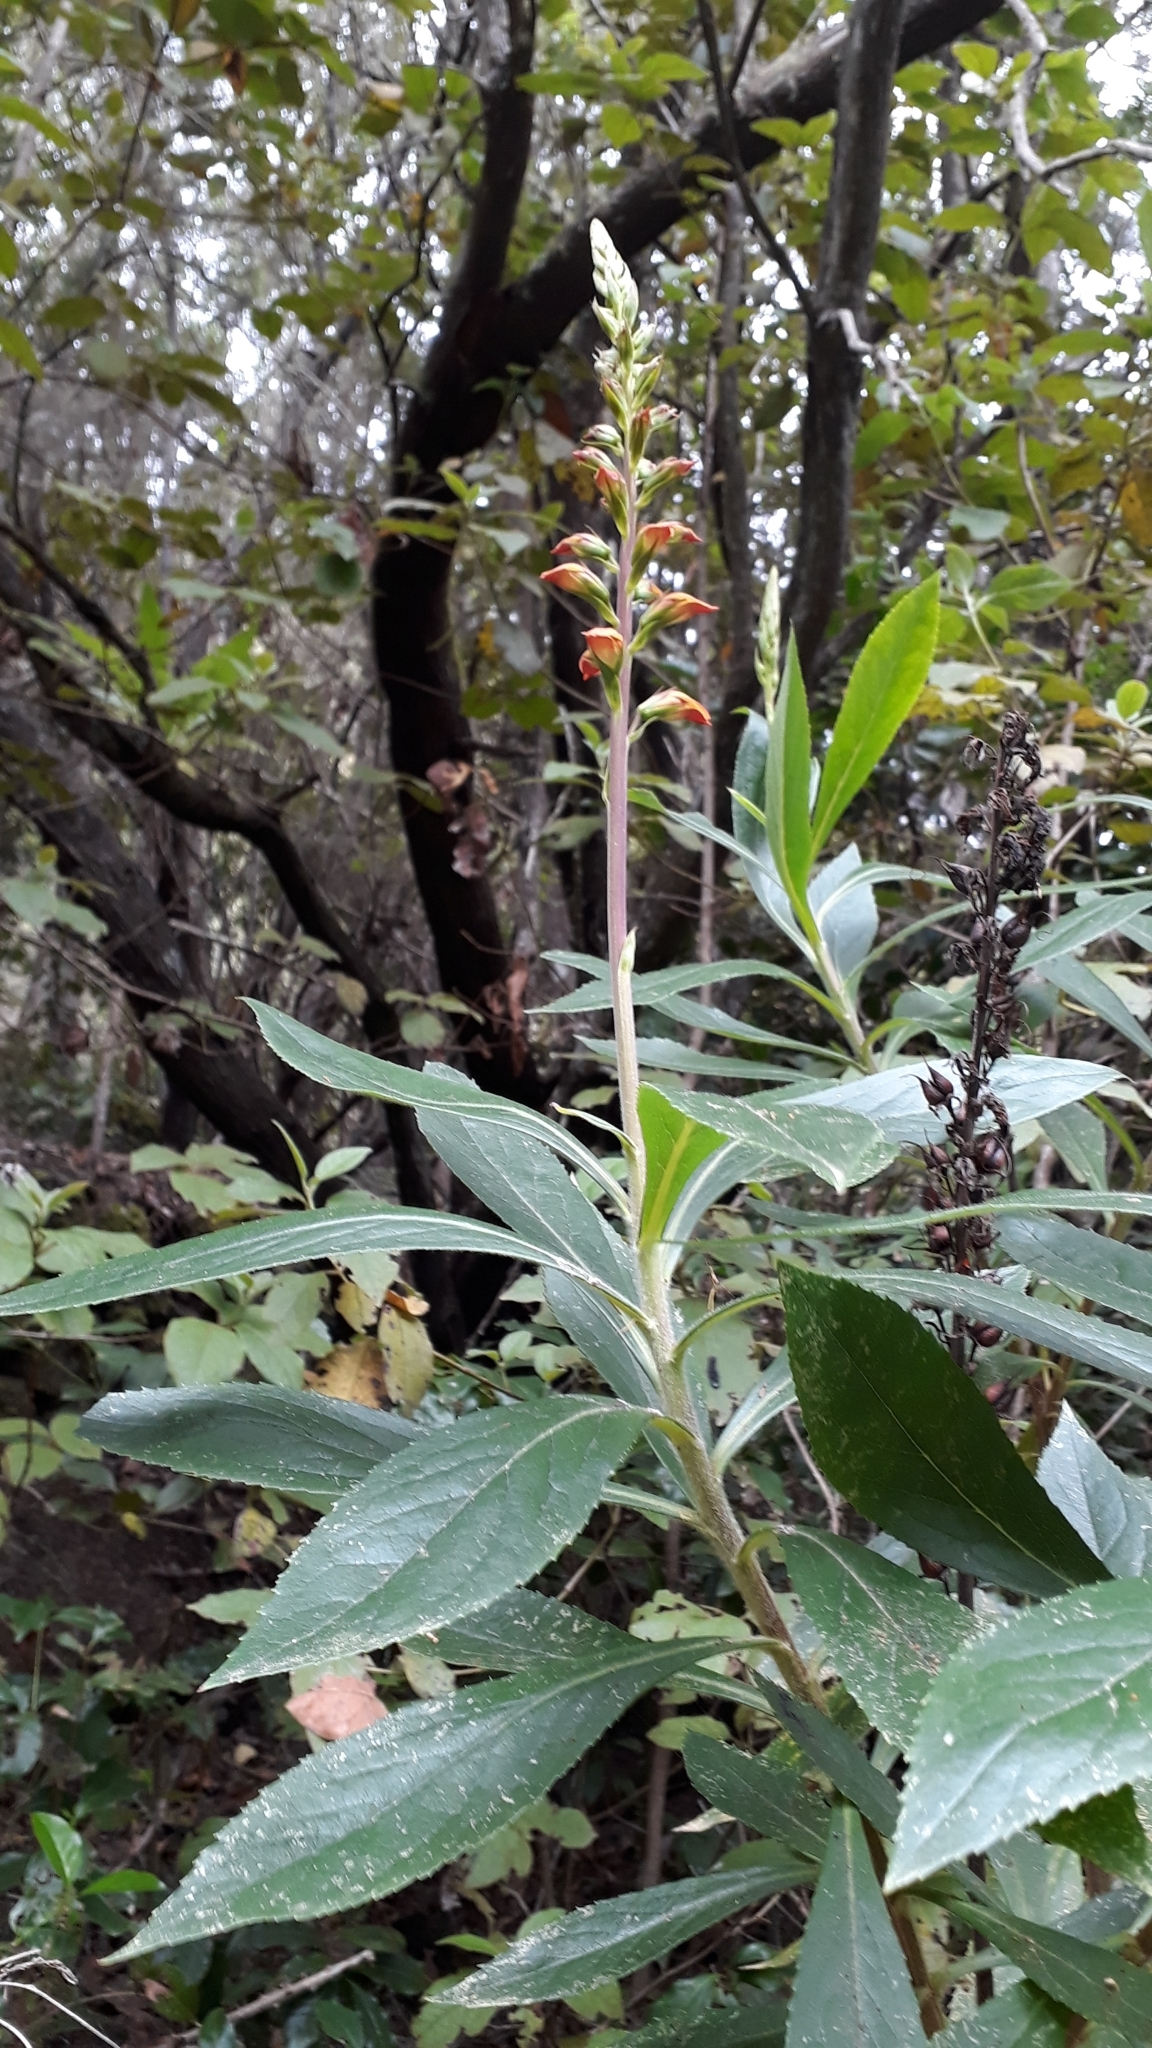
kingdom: Plantae
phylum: Tracheophyta
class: Magnoliopsida
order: Lamiales
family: Plantaginaceae
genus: Digitalis
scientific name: Digitalis canariensis
